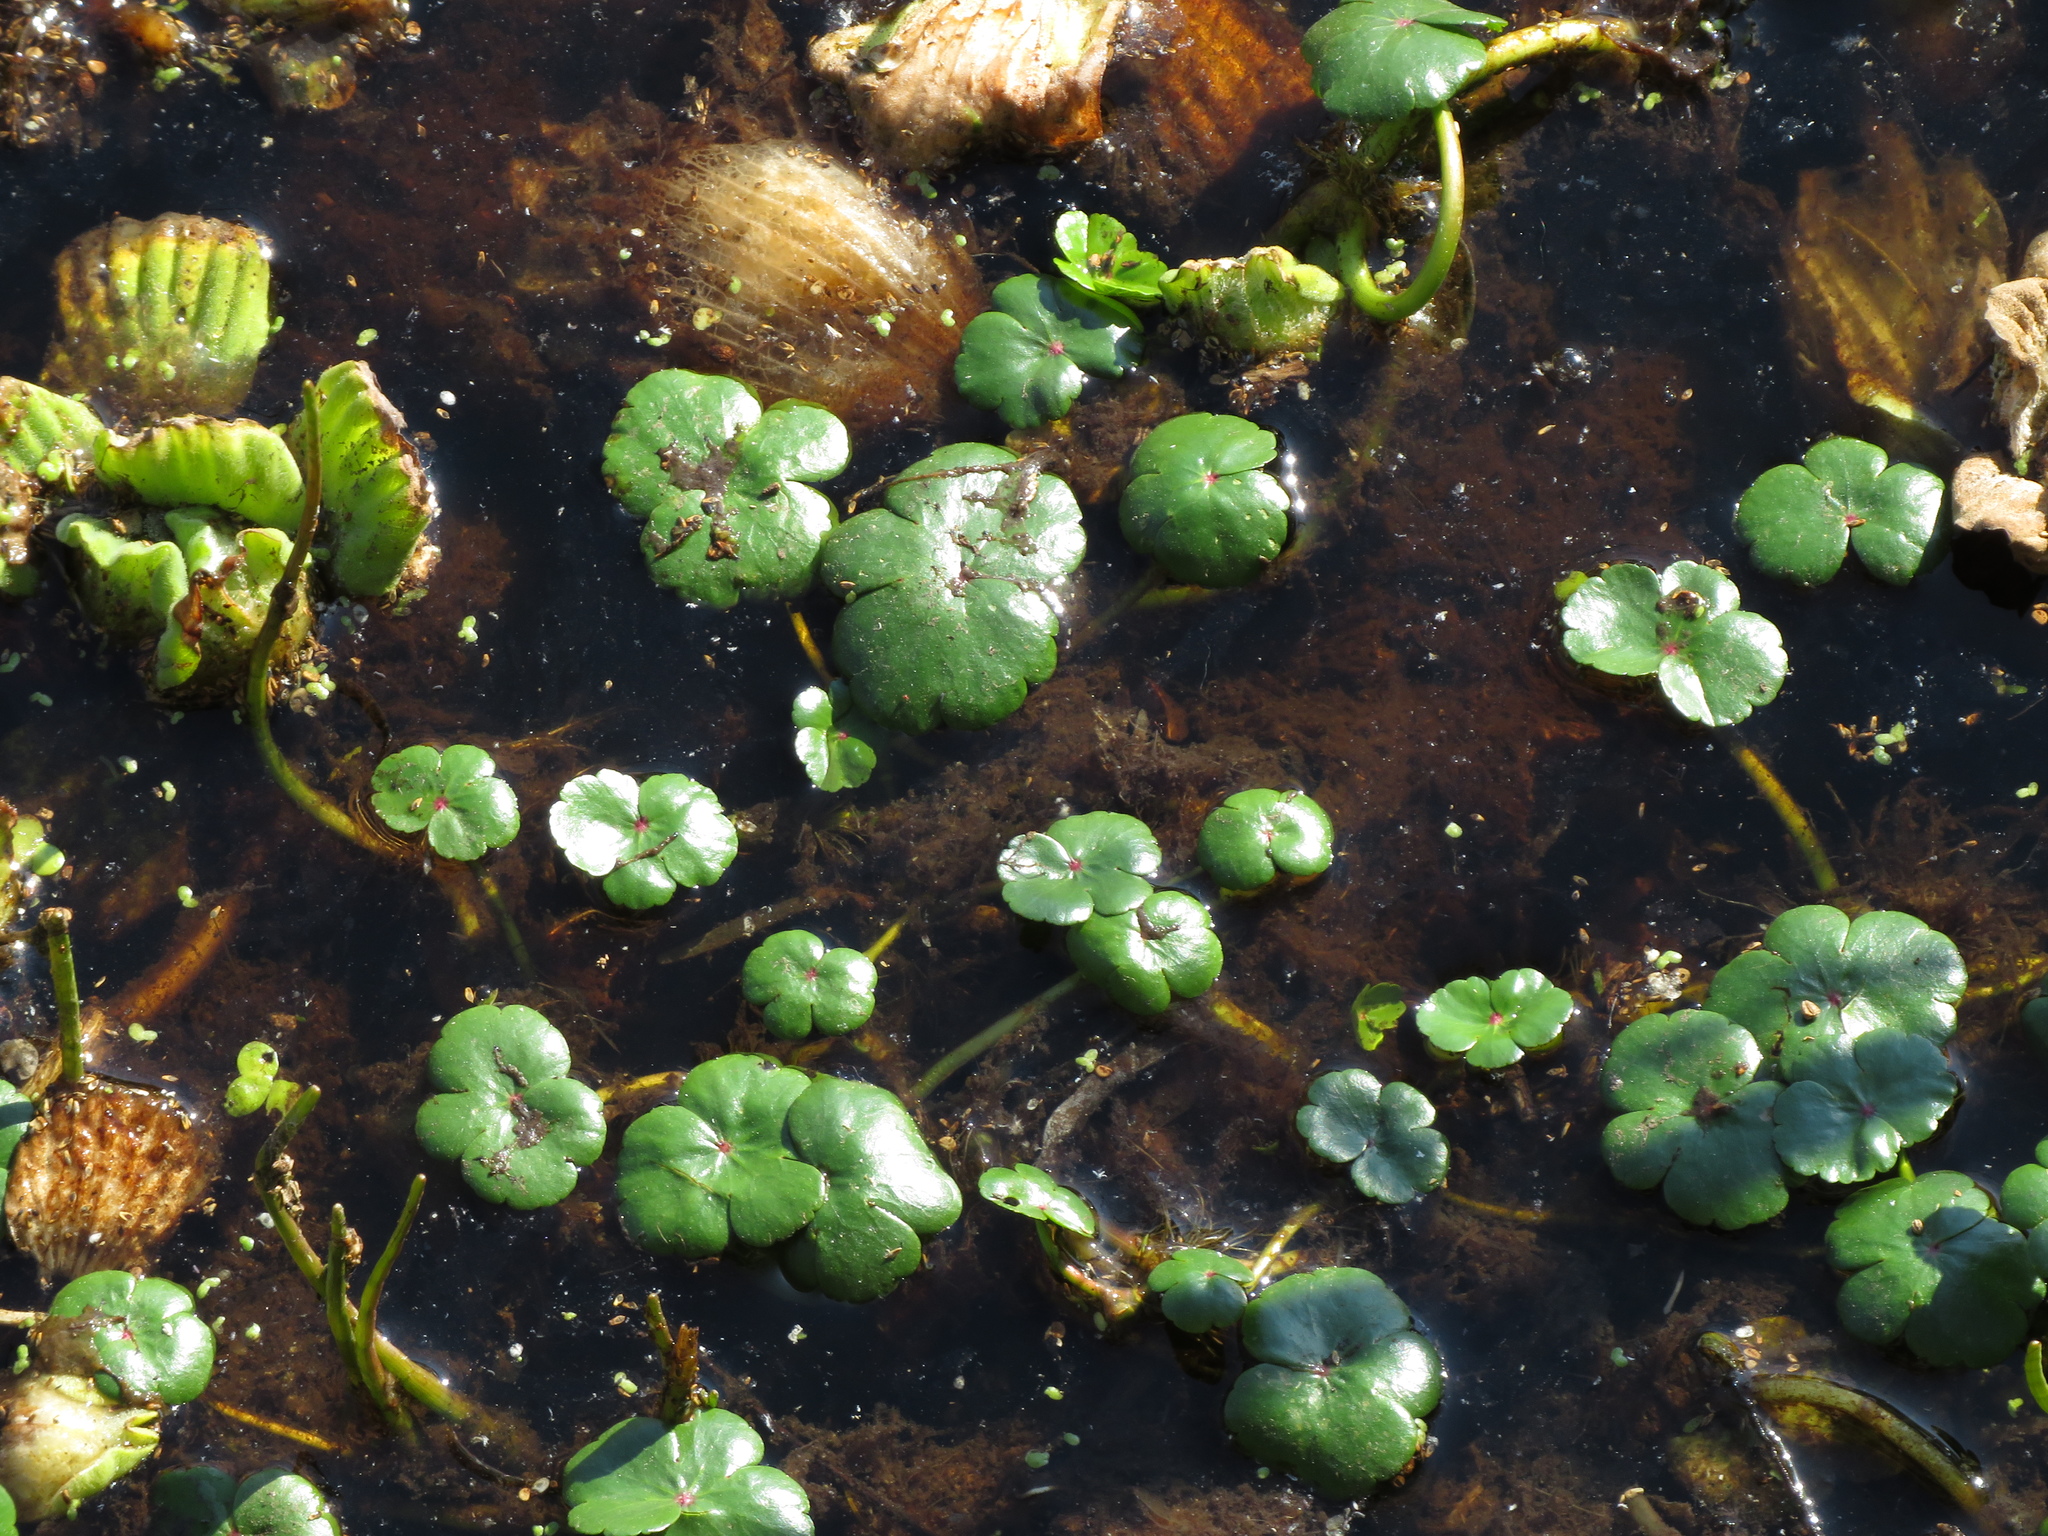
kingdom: Plantae
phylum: Tracheophyta
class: Magnoliopsida
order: Apiales
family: Araliaceae
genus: Hydrocotyle
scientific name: Hydrocotyle ranunculoides
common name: Floating pennywort
